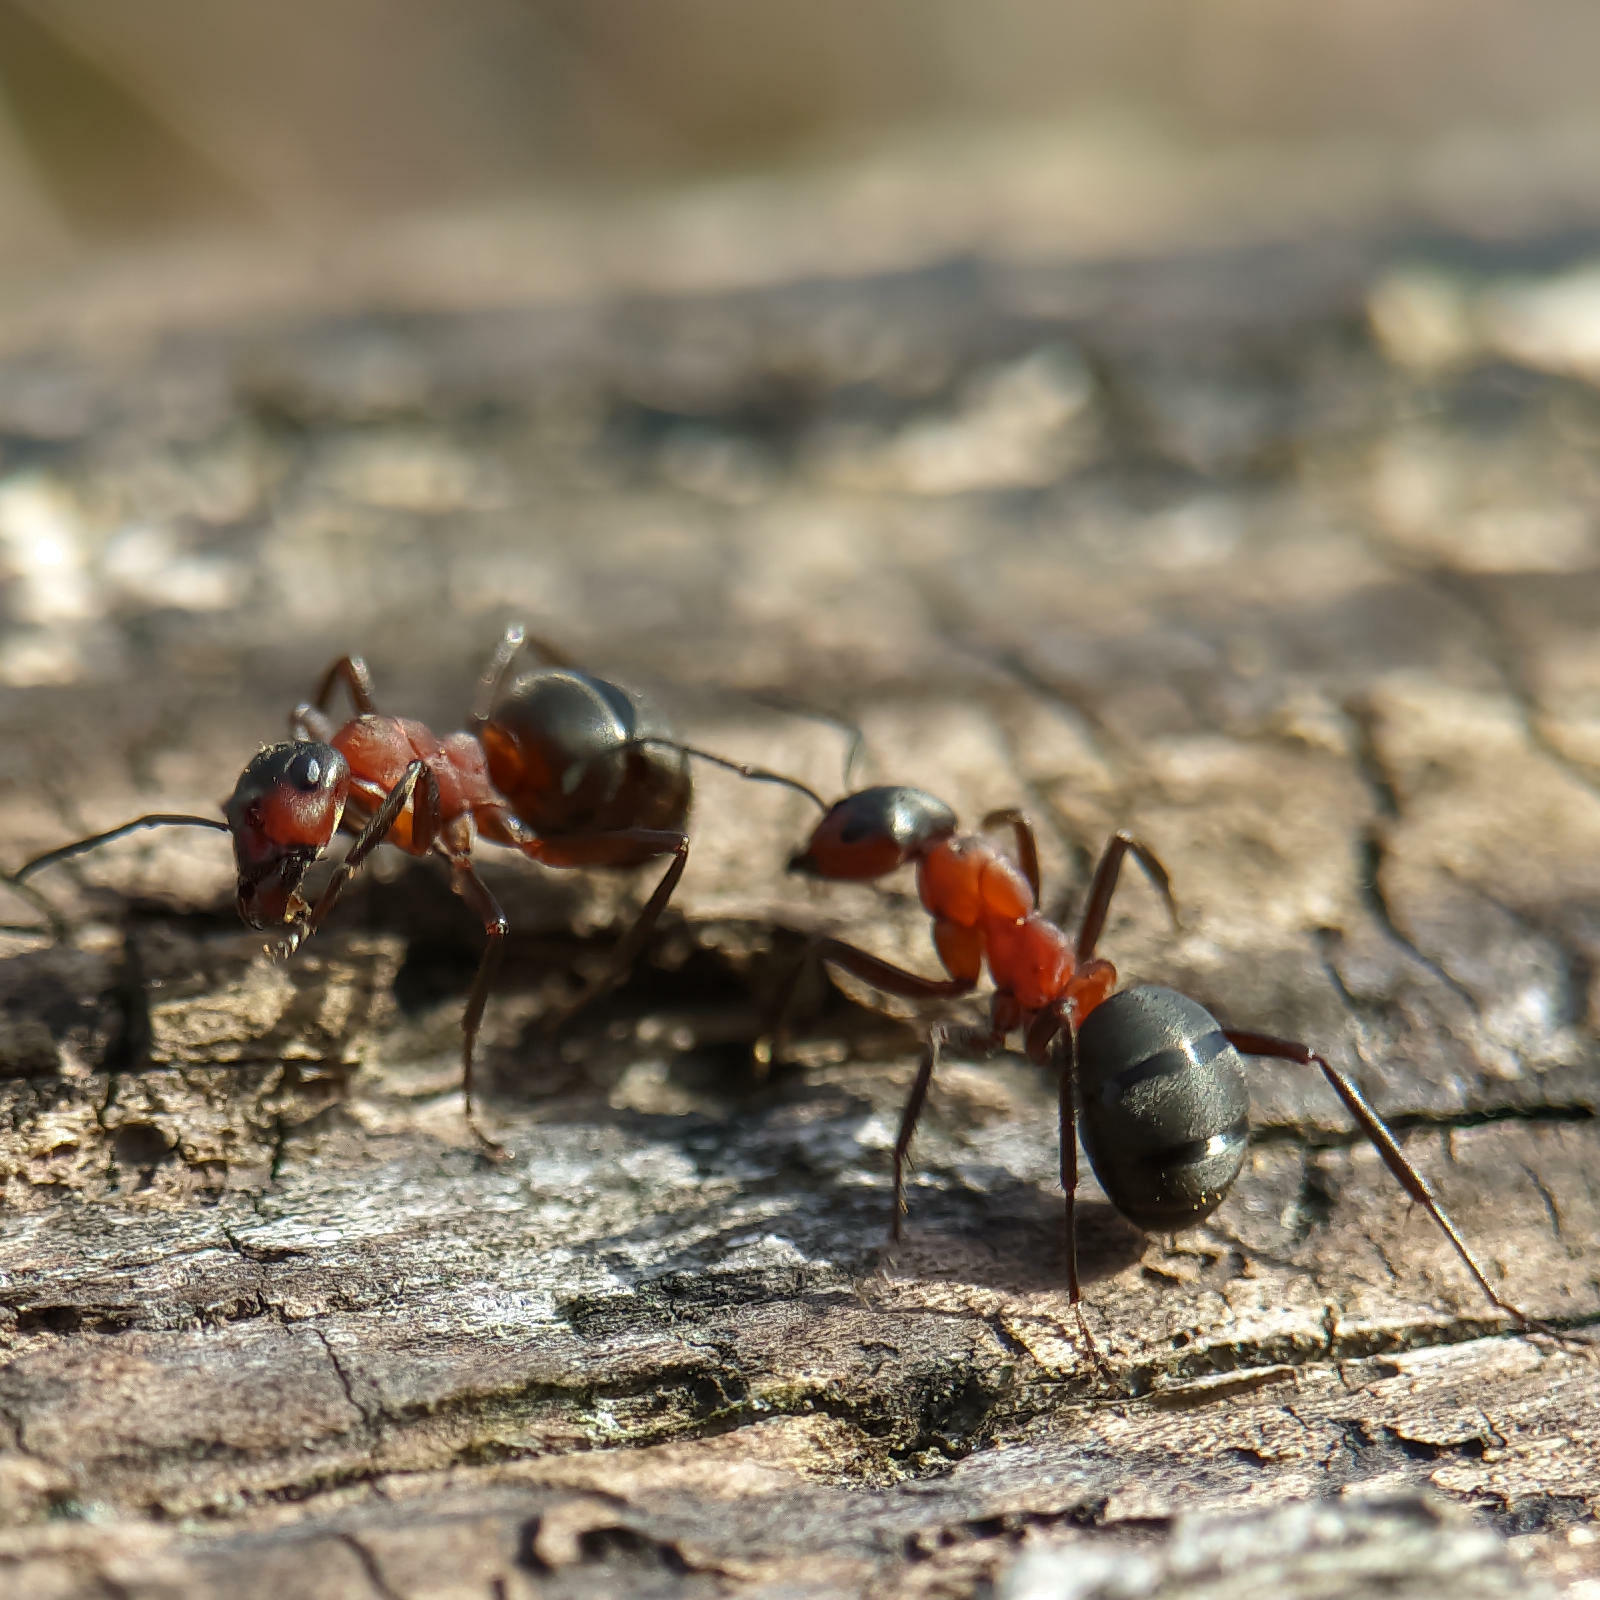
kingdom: Animalia
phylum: Arthropoda
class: Insecta
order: Hymenoptera
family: Formicidae
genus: Formica
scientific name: Formica
